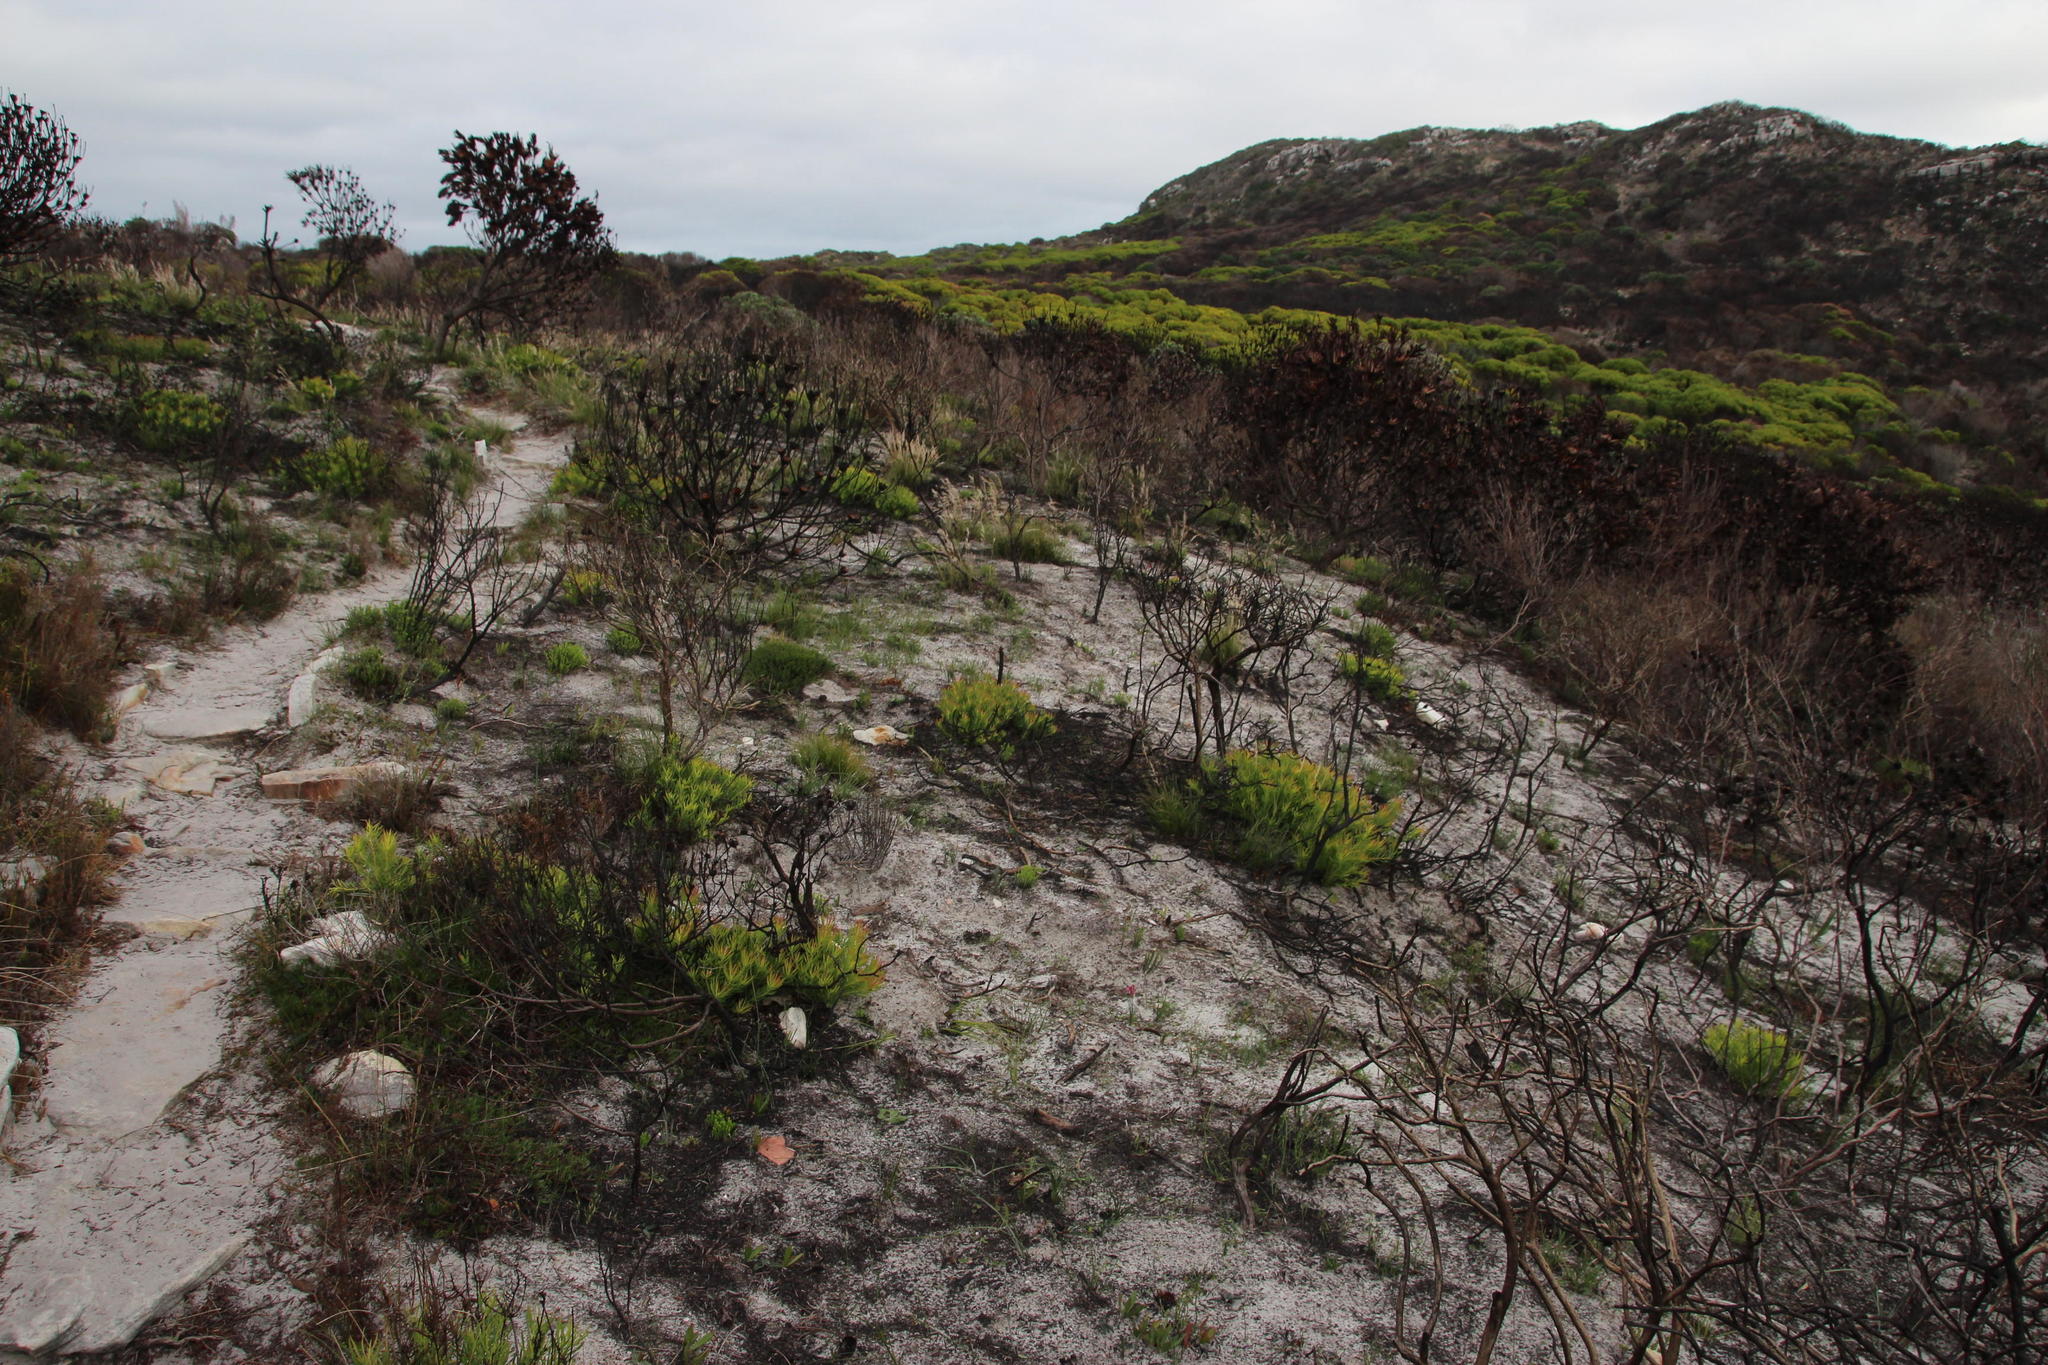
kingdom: Plantae
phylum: Tracheophyta
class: Magnoliopsida
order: Proteales
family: Proteaceae
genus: Leucadendron
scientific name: Leucadendron salignum
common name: Common sunshine conebush
